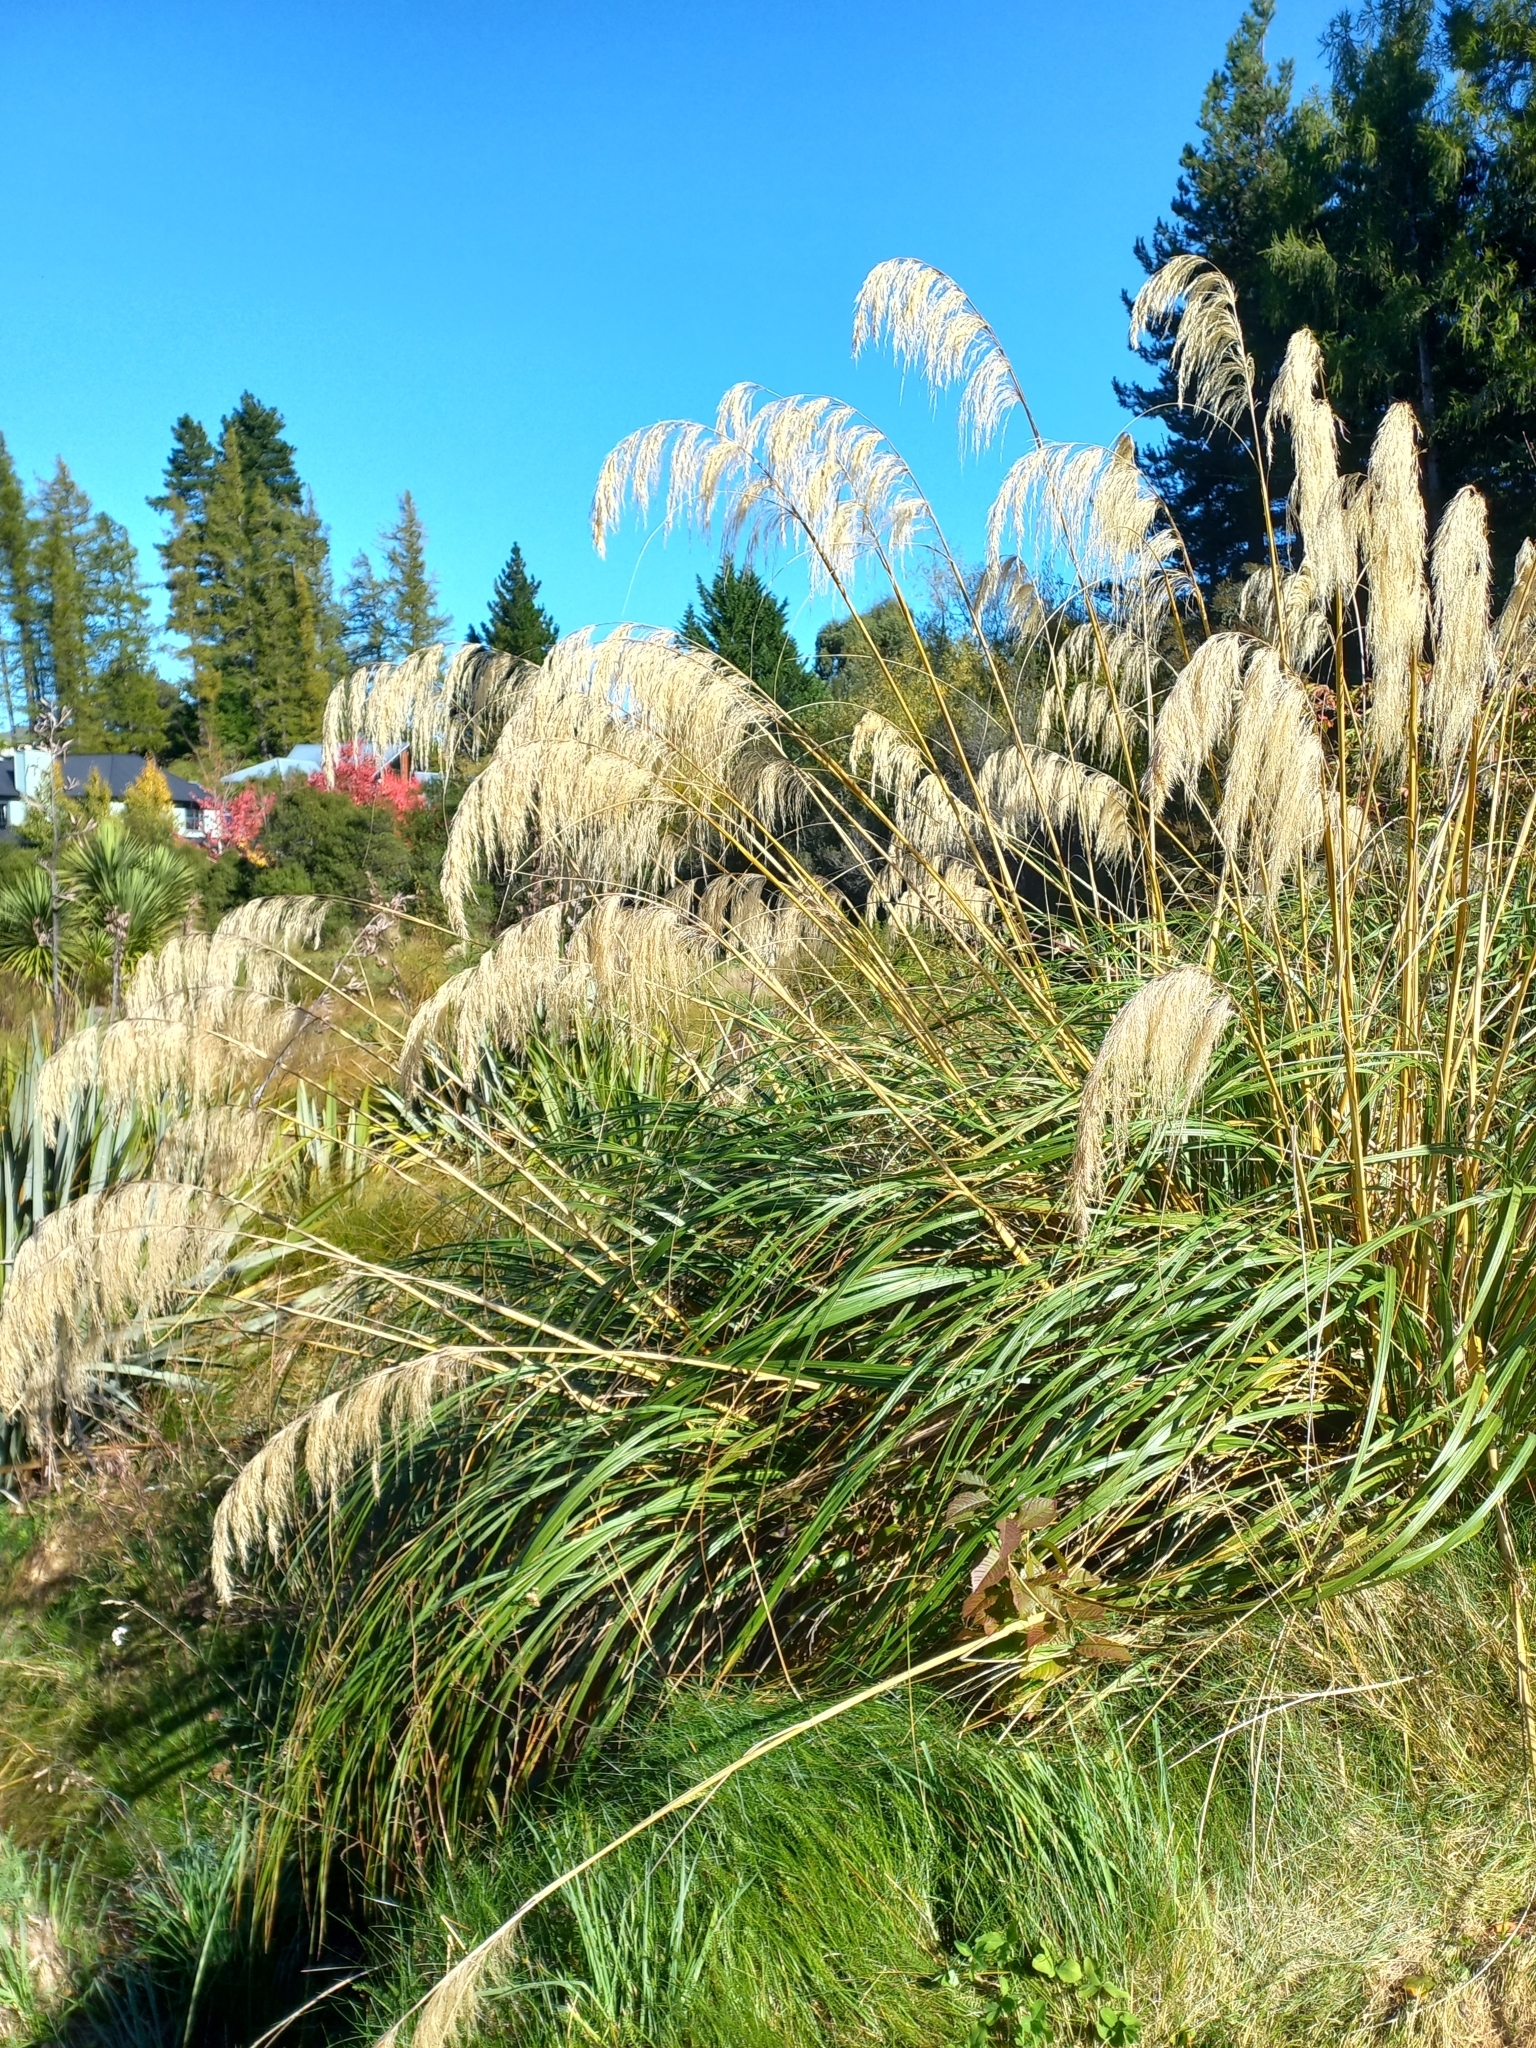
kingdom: Plantae
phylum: Tracheophyta
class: Liliopsida
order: Poales
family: Poaceae
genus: Austroderia
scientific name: Austroderia richardii
